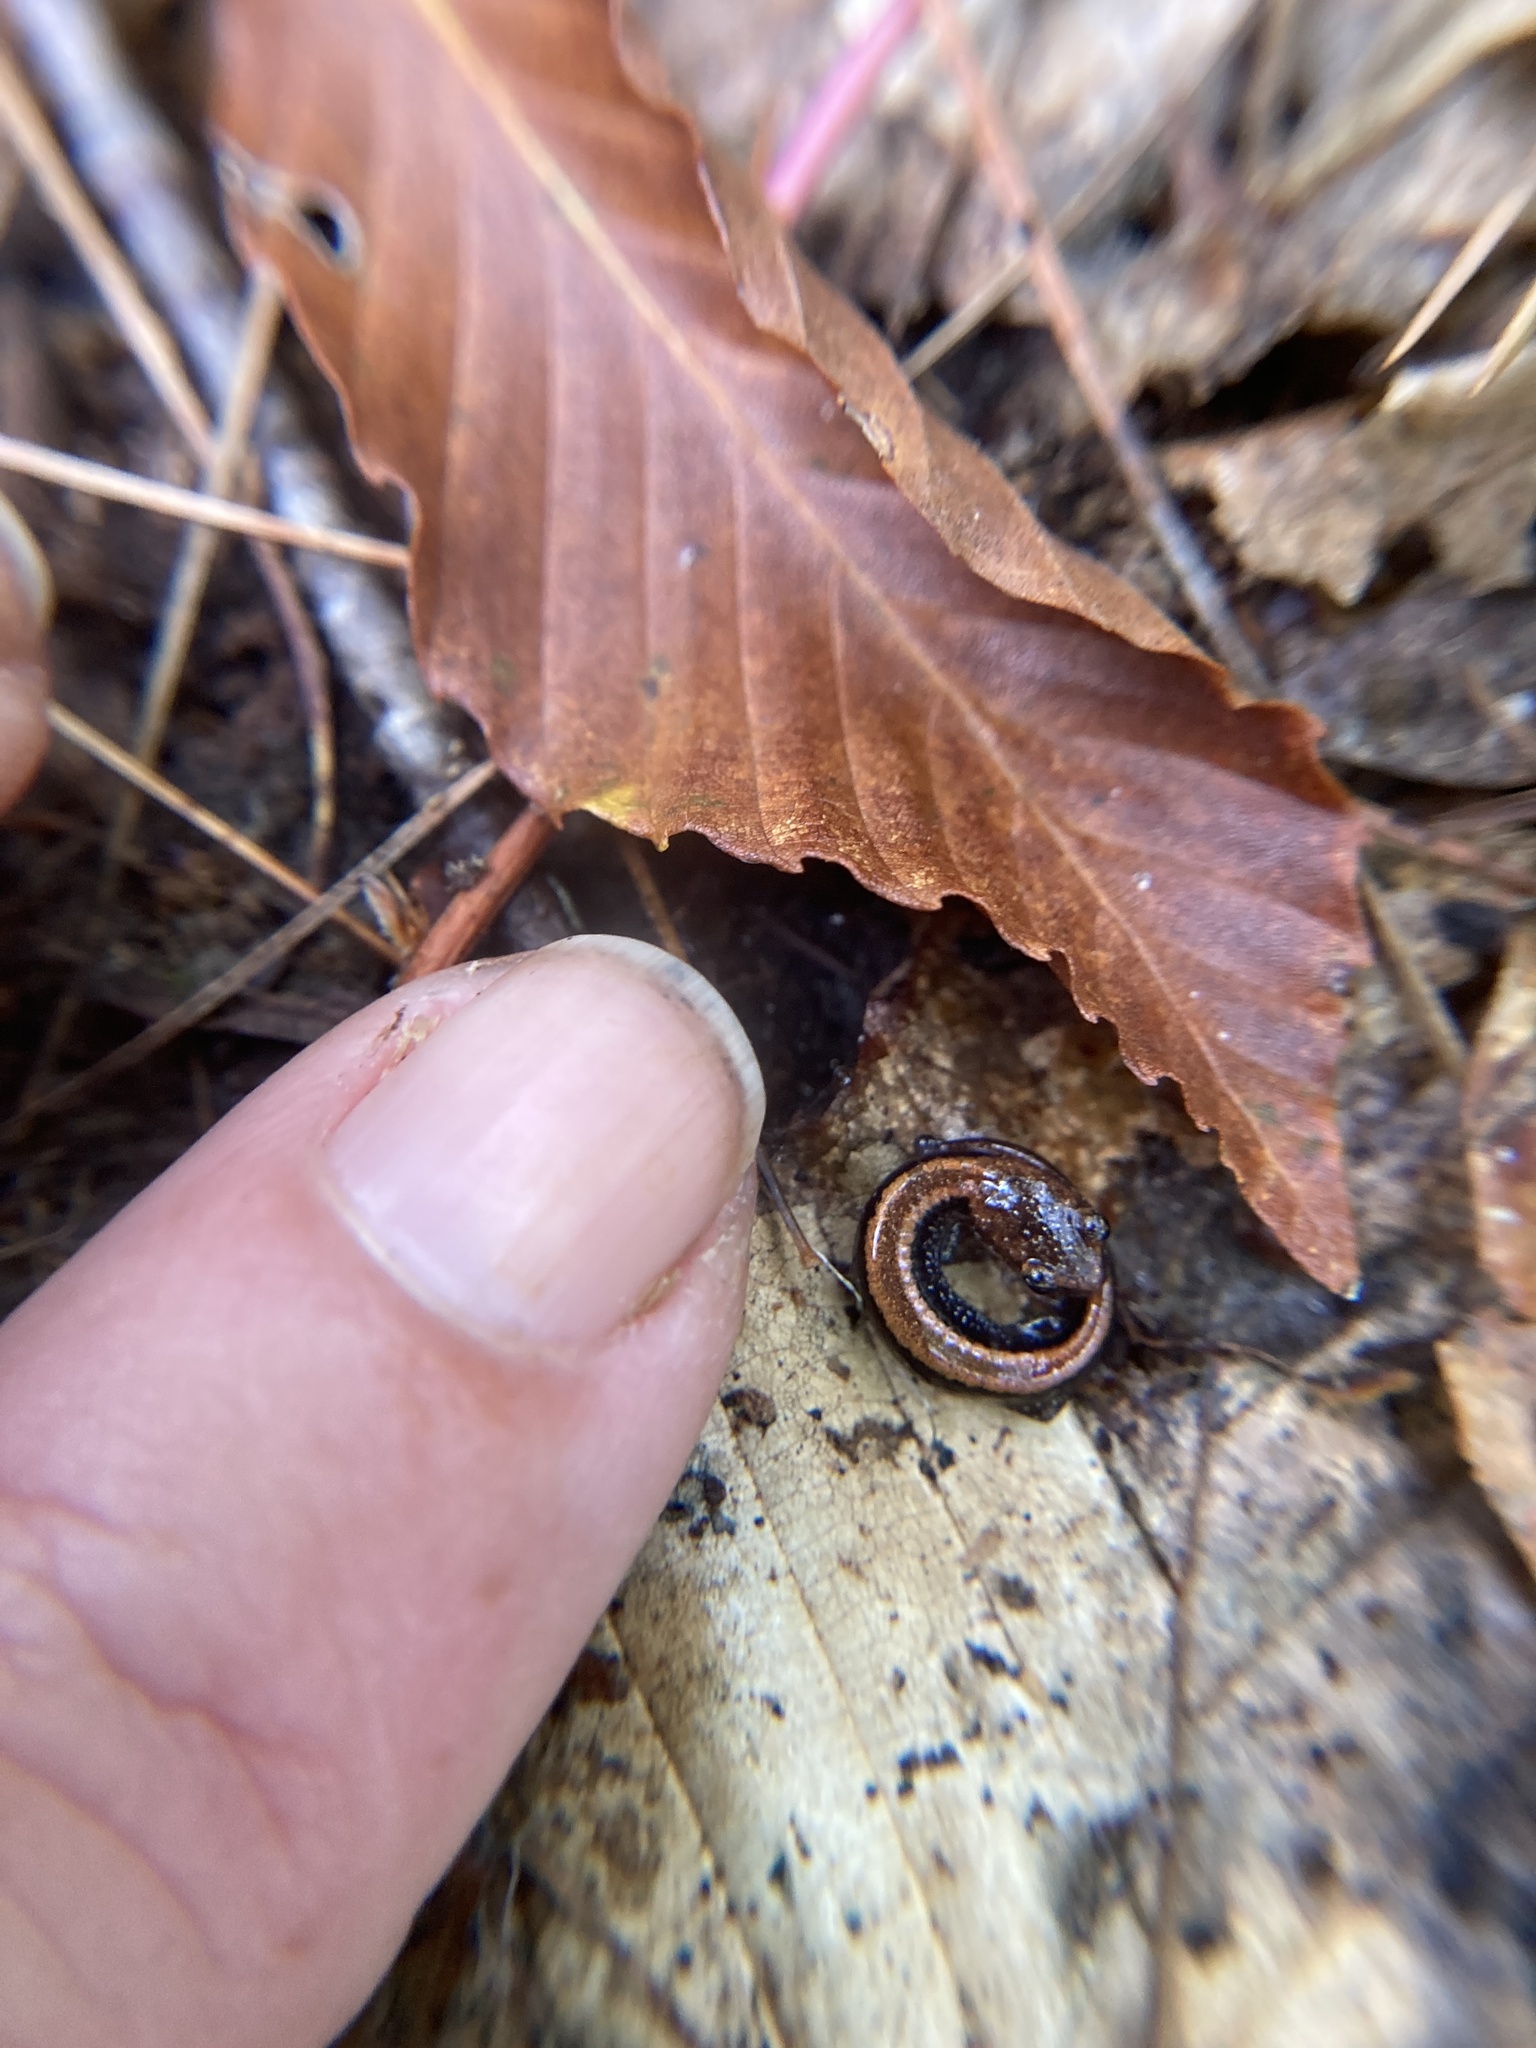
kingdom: Animalia
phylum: Chordata
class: Amphibia
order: Caudata
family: Plethodontidae
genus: Plethodon
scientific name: Plethodon cinereus
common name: Redback salamander
